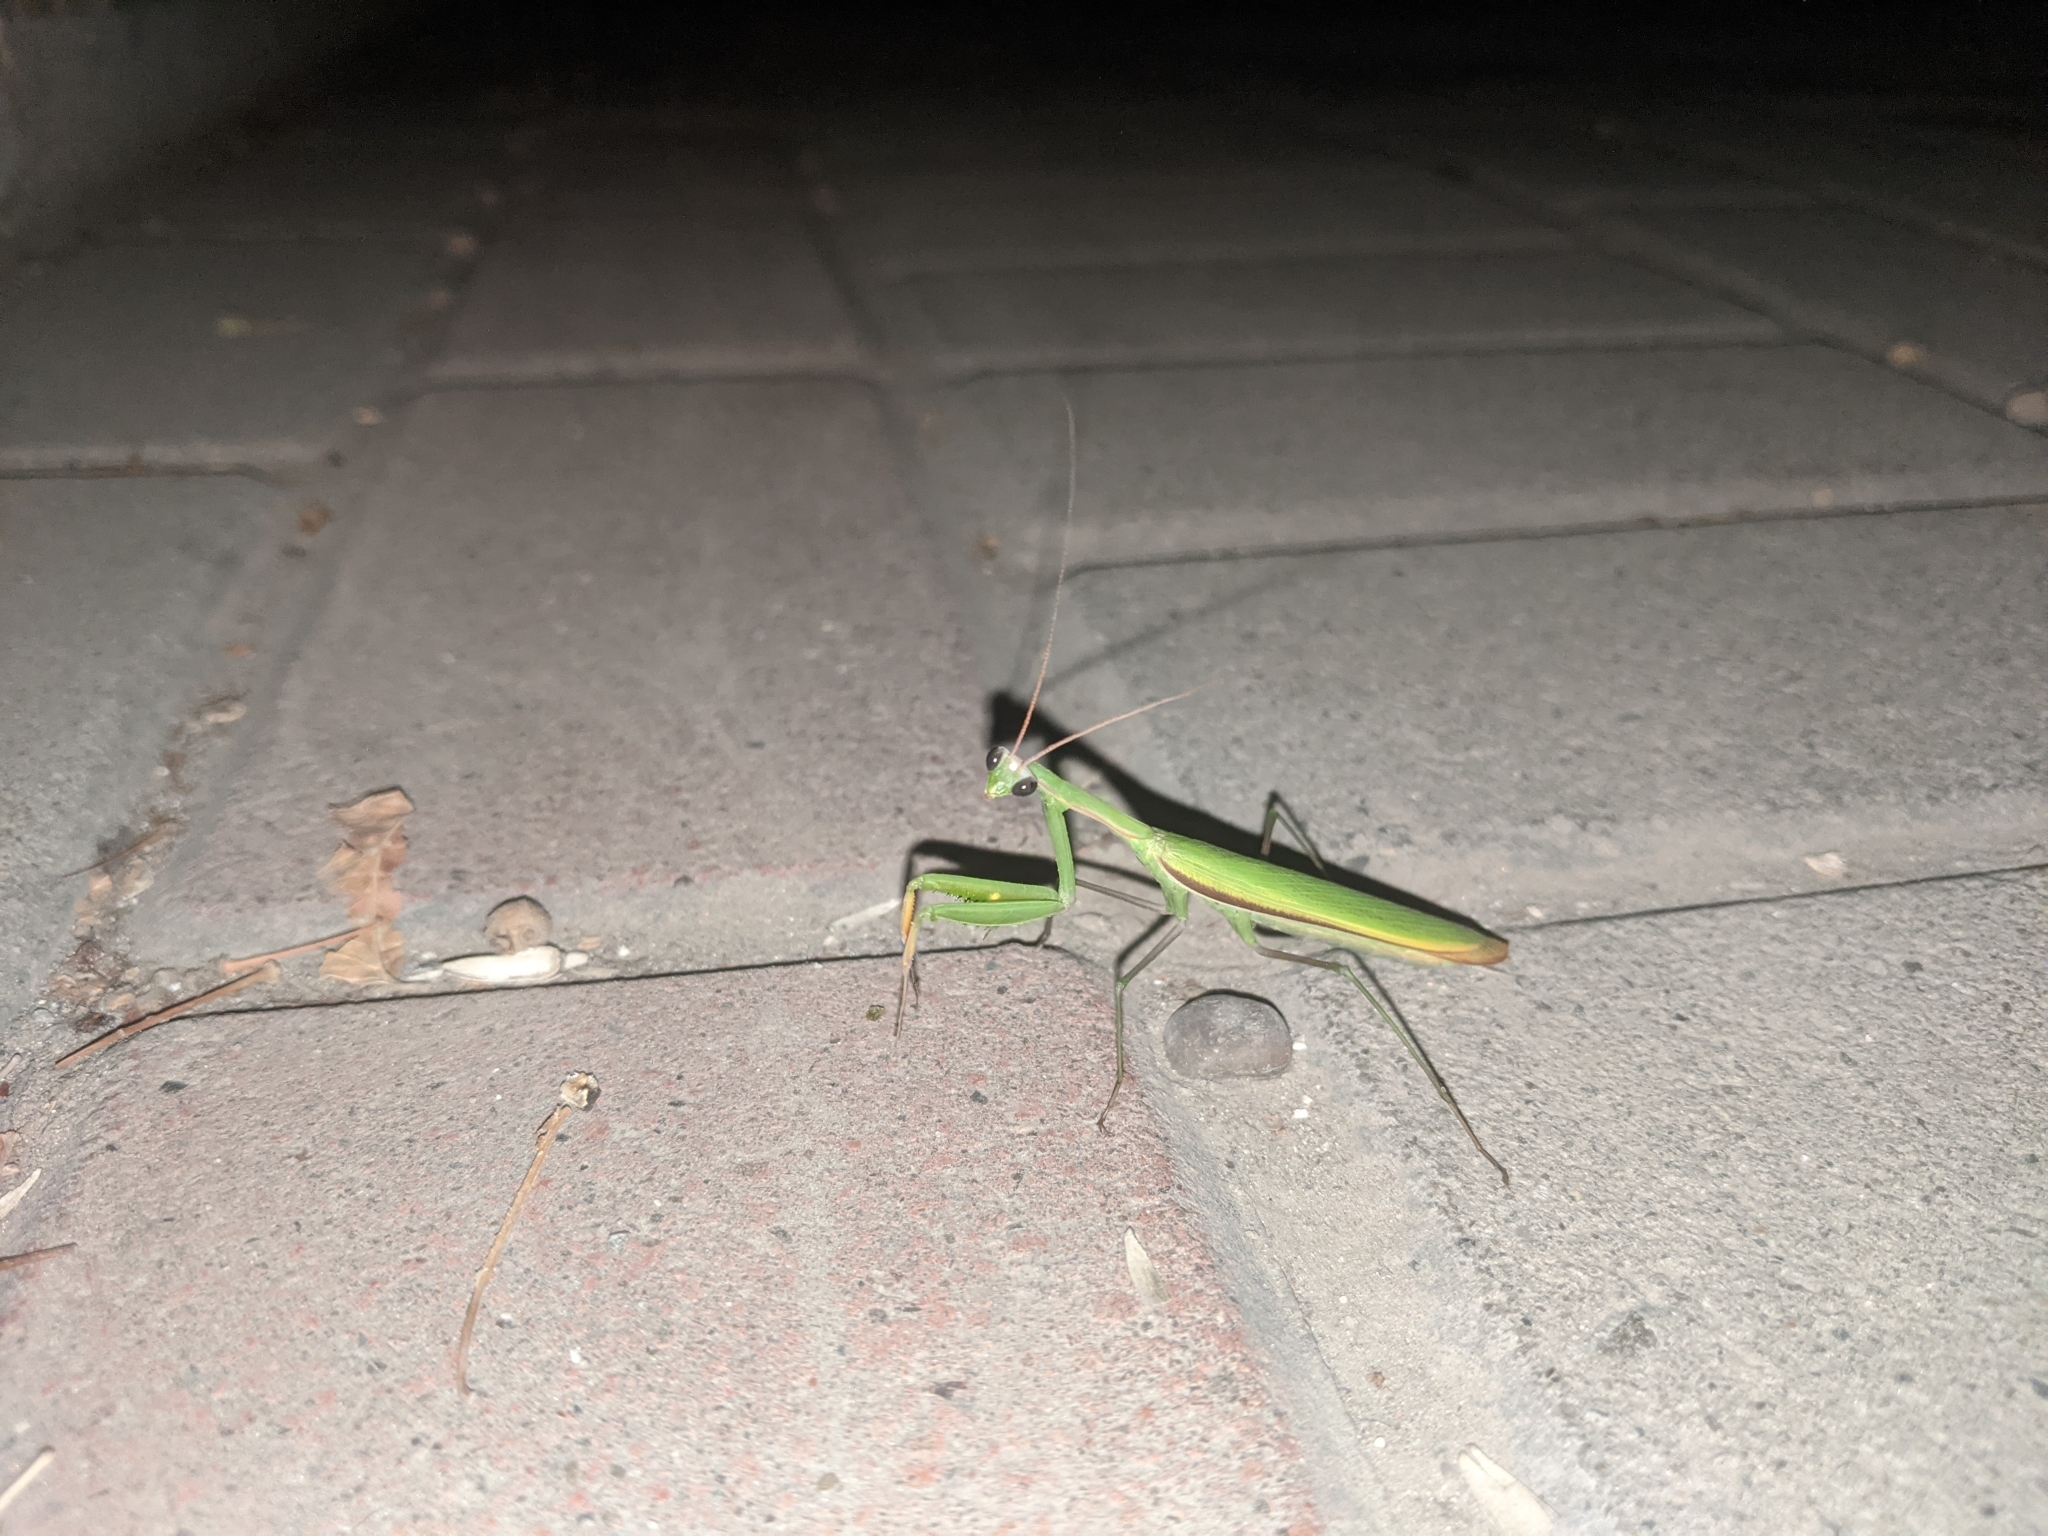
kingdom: Animalia
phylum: Arthropoda
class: Insecta
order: Mantodea
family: Mantidae
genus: Mantis
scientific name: Mantis religiosa
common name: Praying mantis
